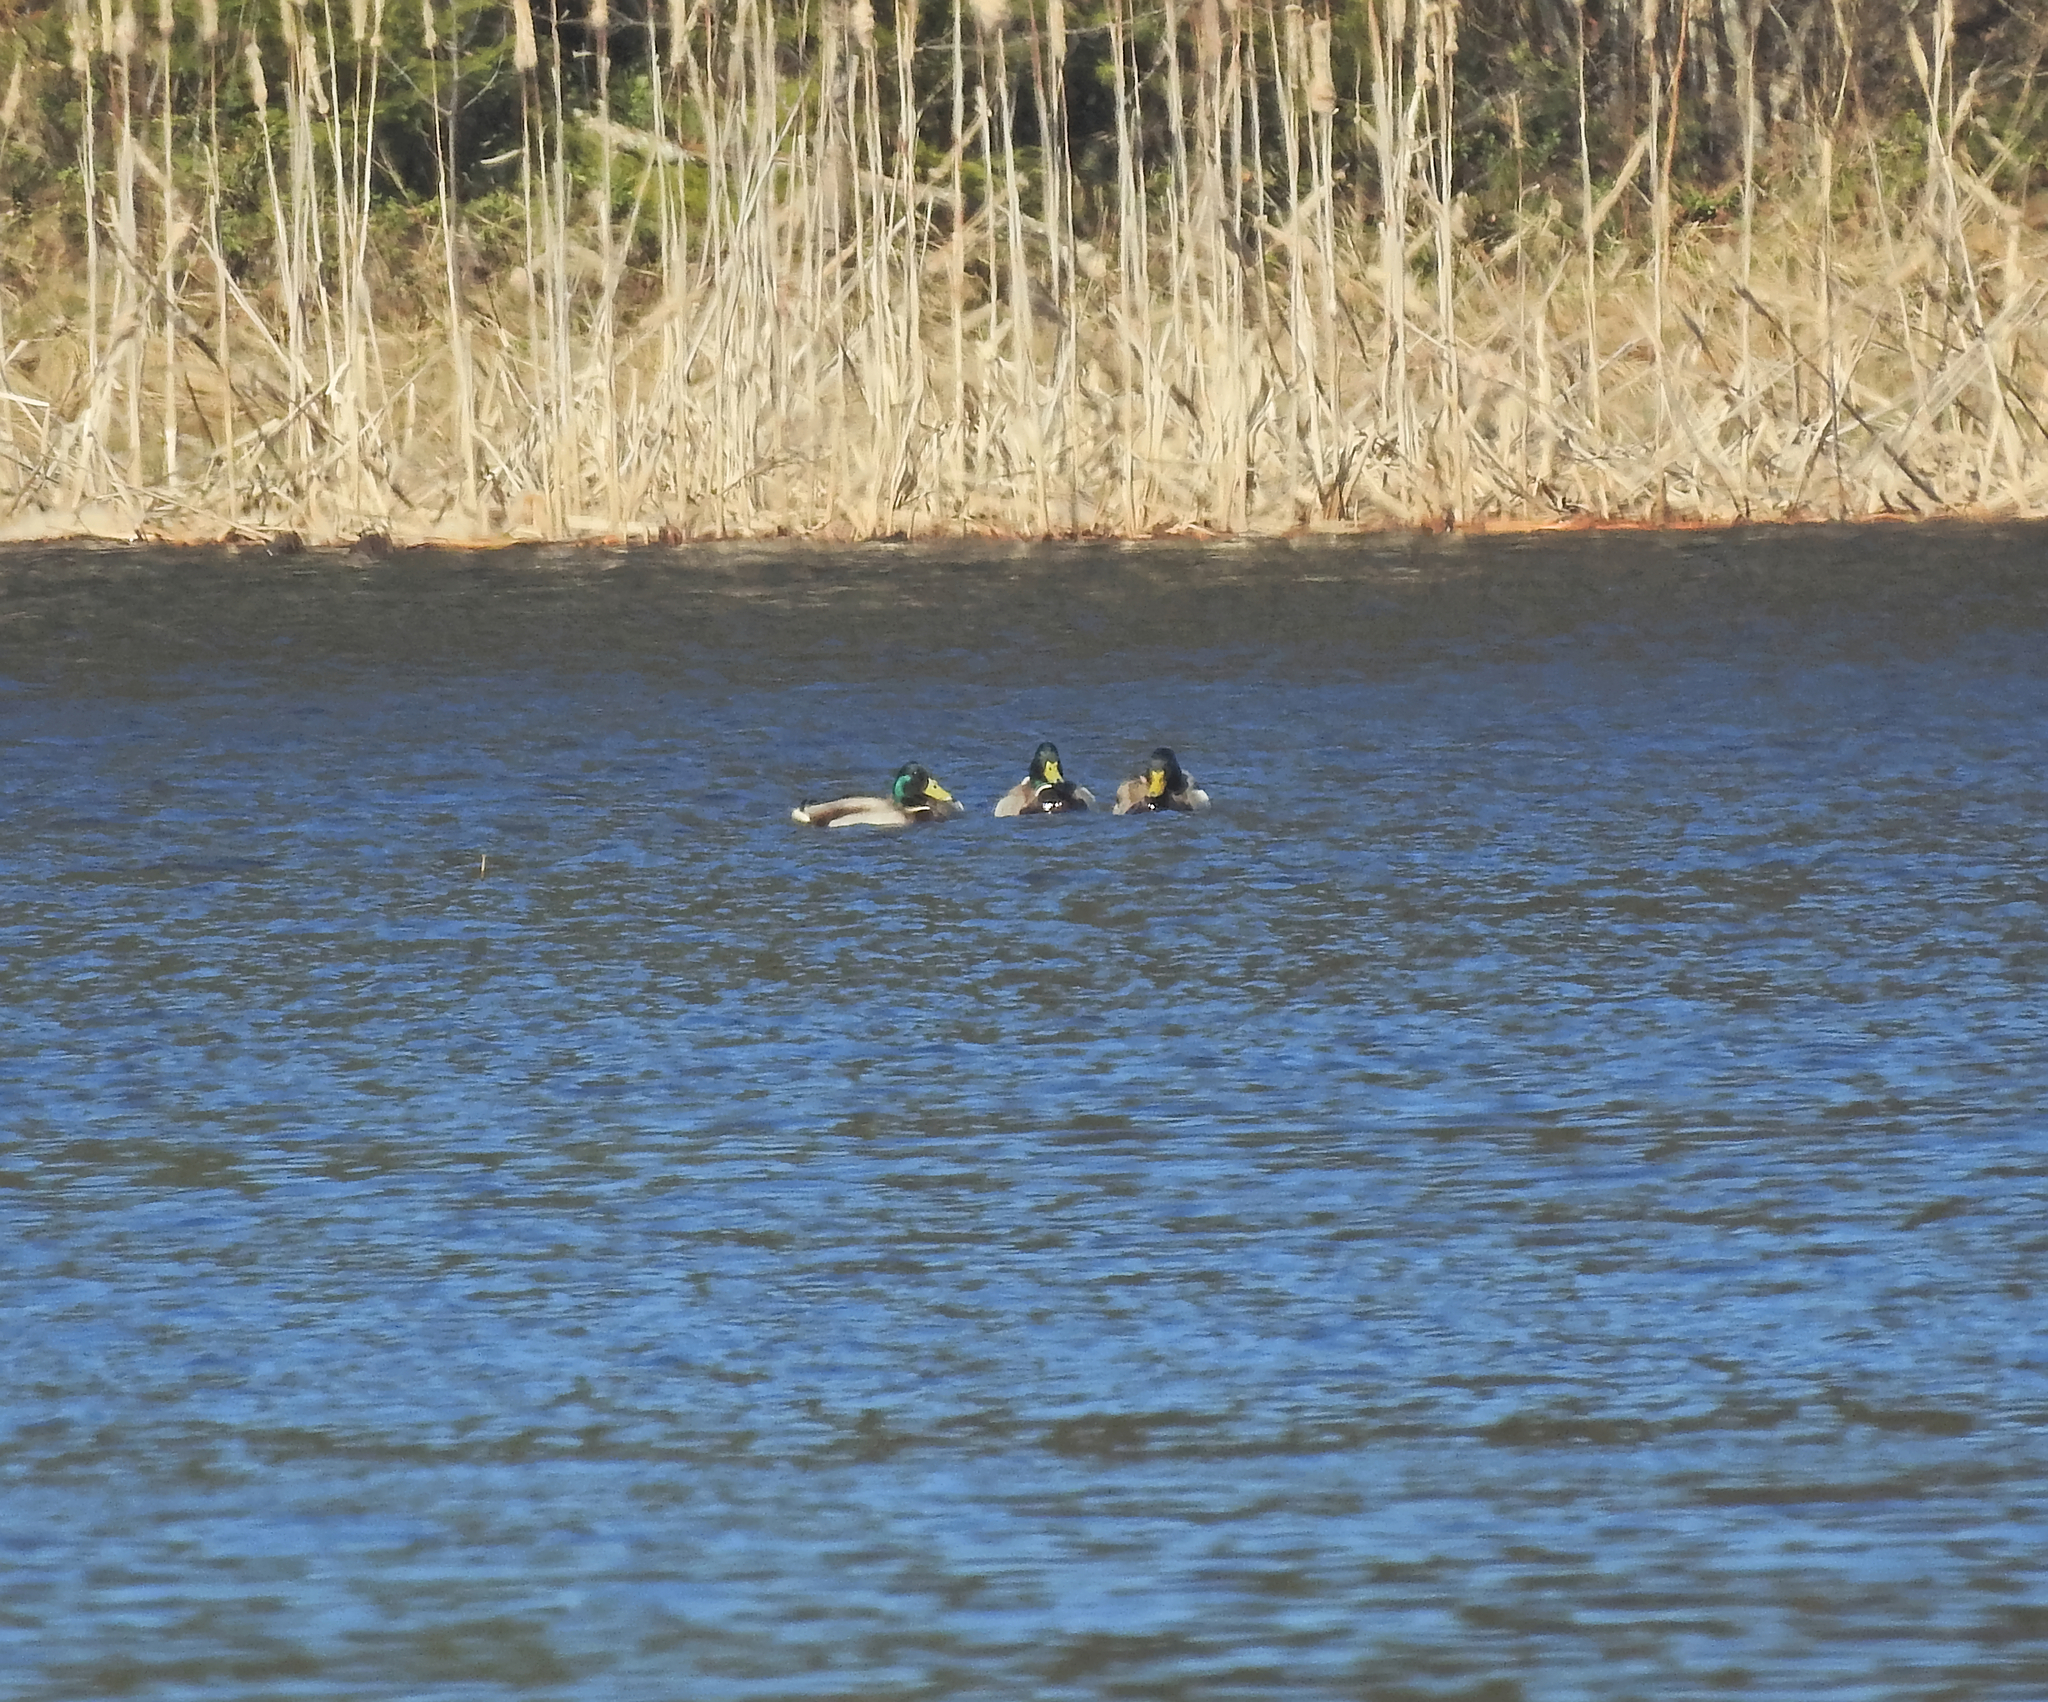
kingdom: Animalia
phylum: Chordata
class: Aves
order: Anseriformes
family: Anatidae
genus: Anas
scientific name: Anas platyrhynchos
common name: Mallard
